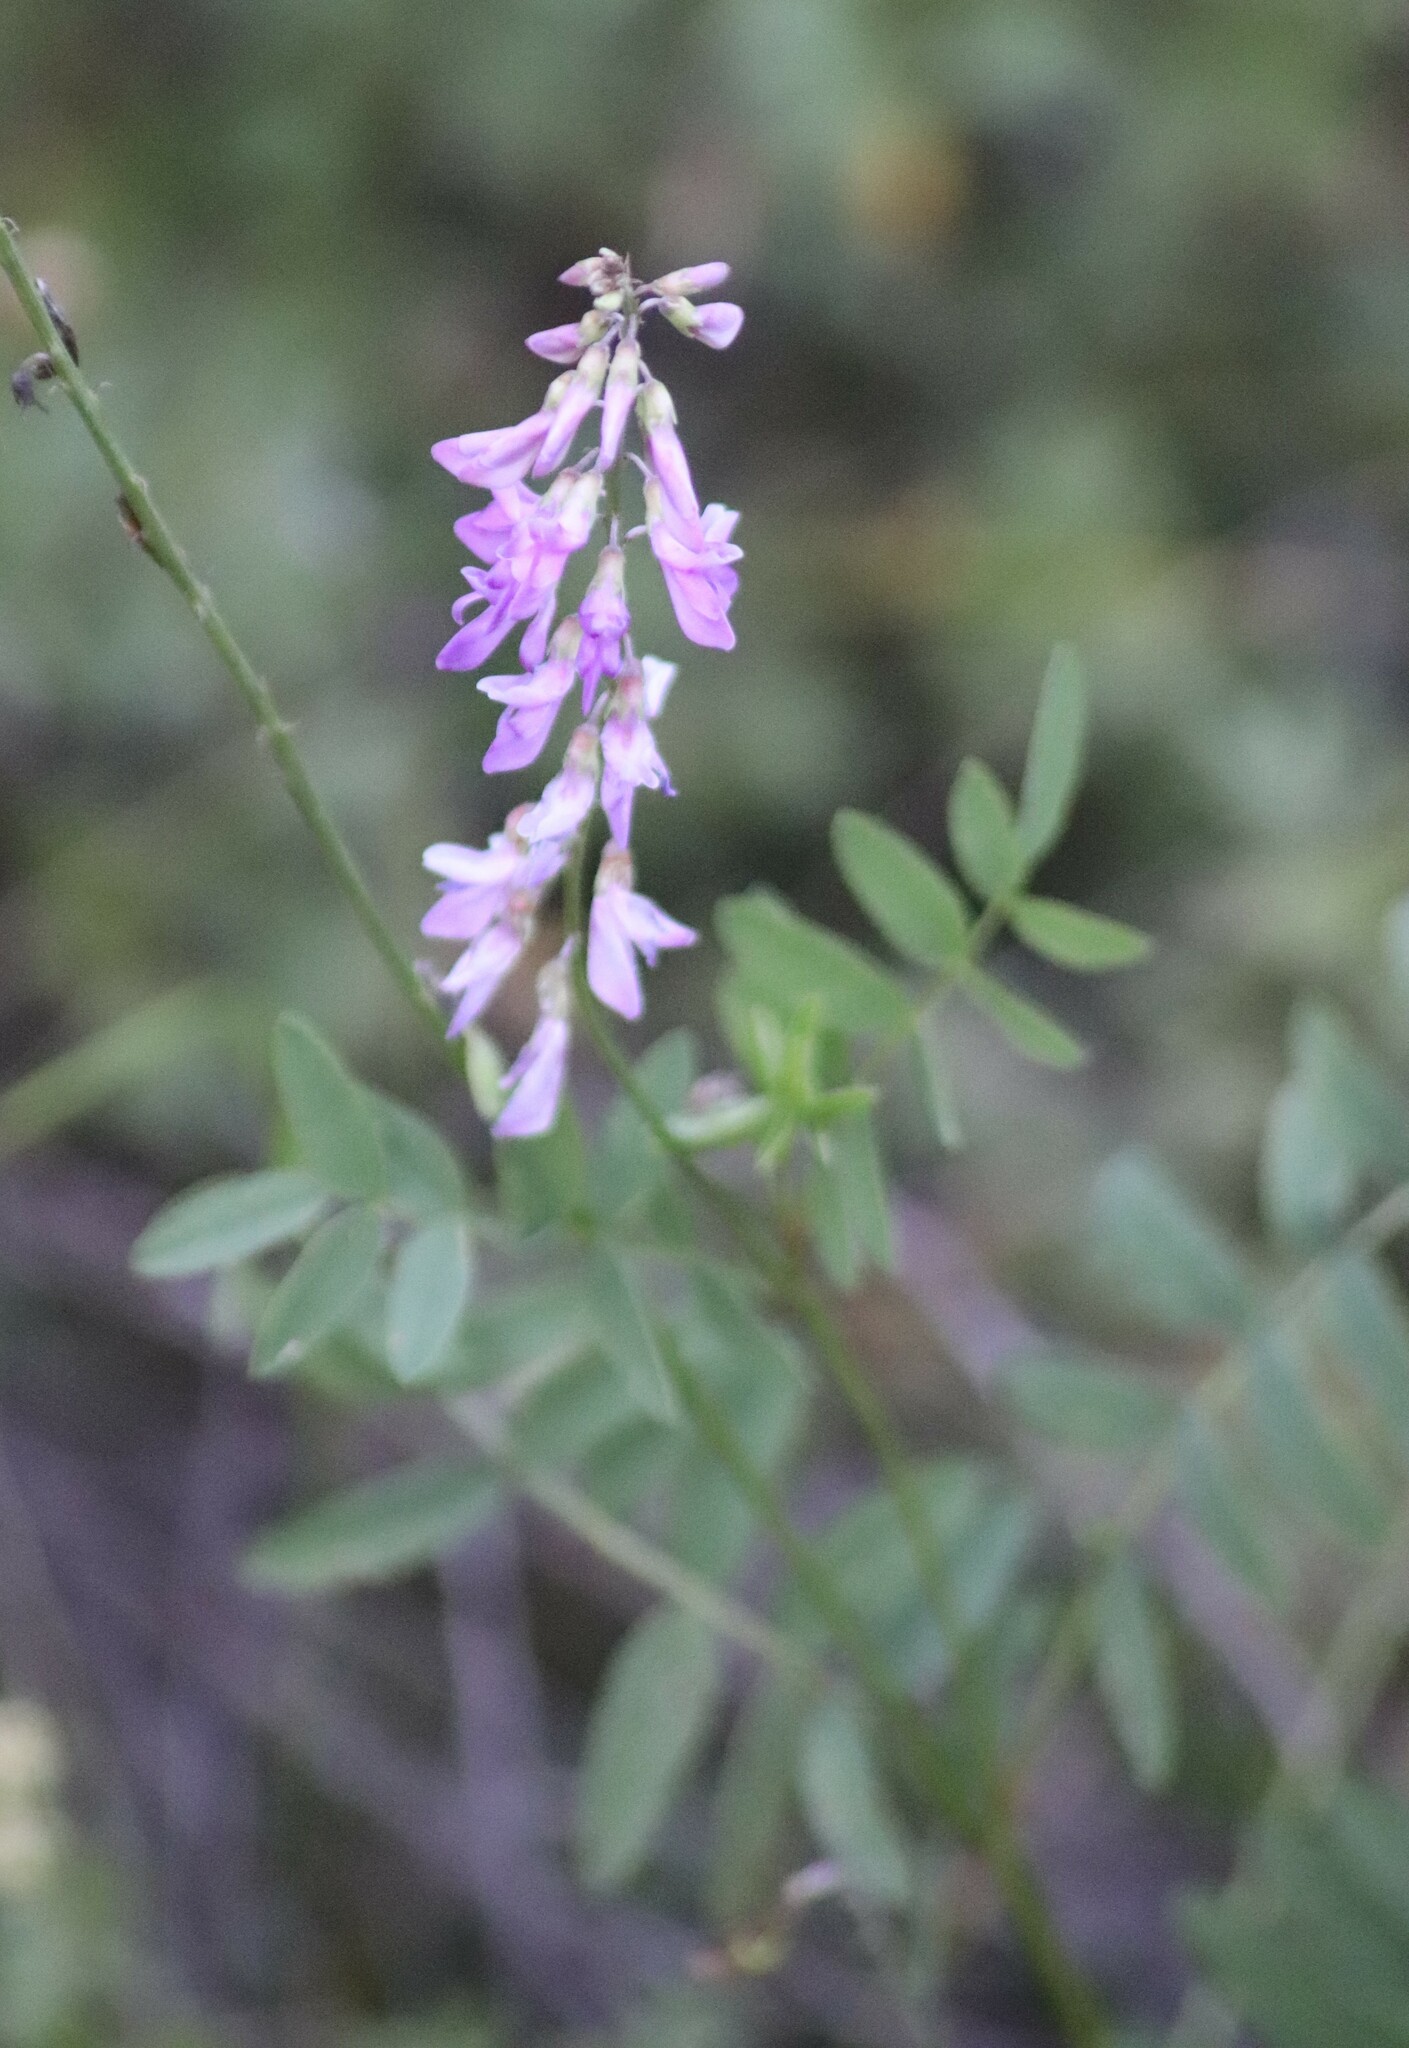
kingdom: Plantae
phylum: Tracheophyta
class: Magnoliopsida
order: Fabales
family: Fabaceae
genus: Hedysarum
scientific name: Hedysarum alpinum
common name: Alpine sweet-vetch
